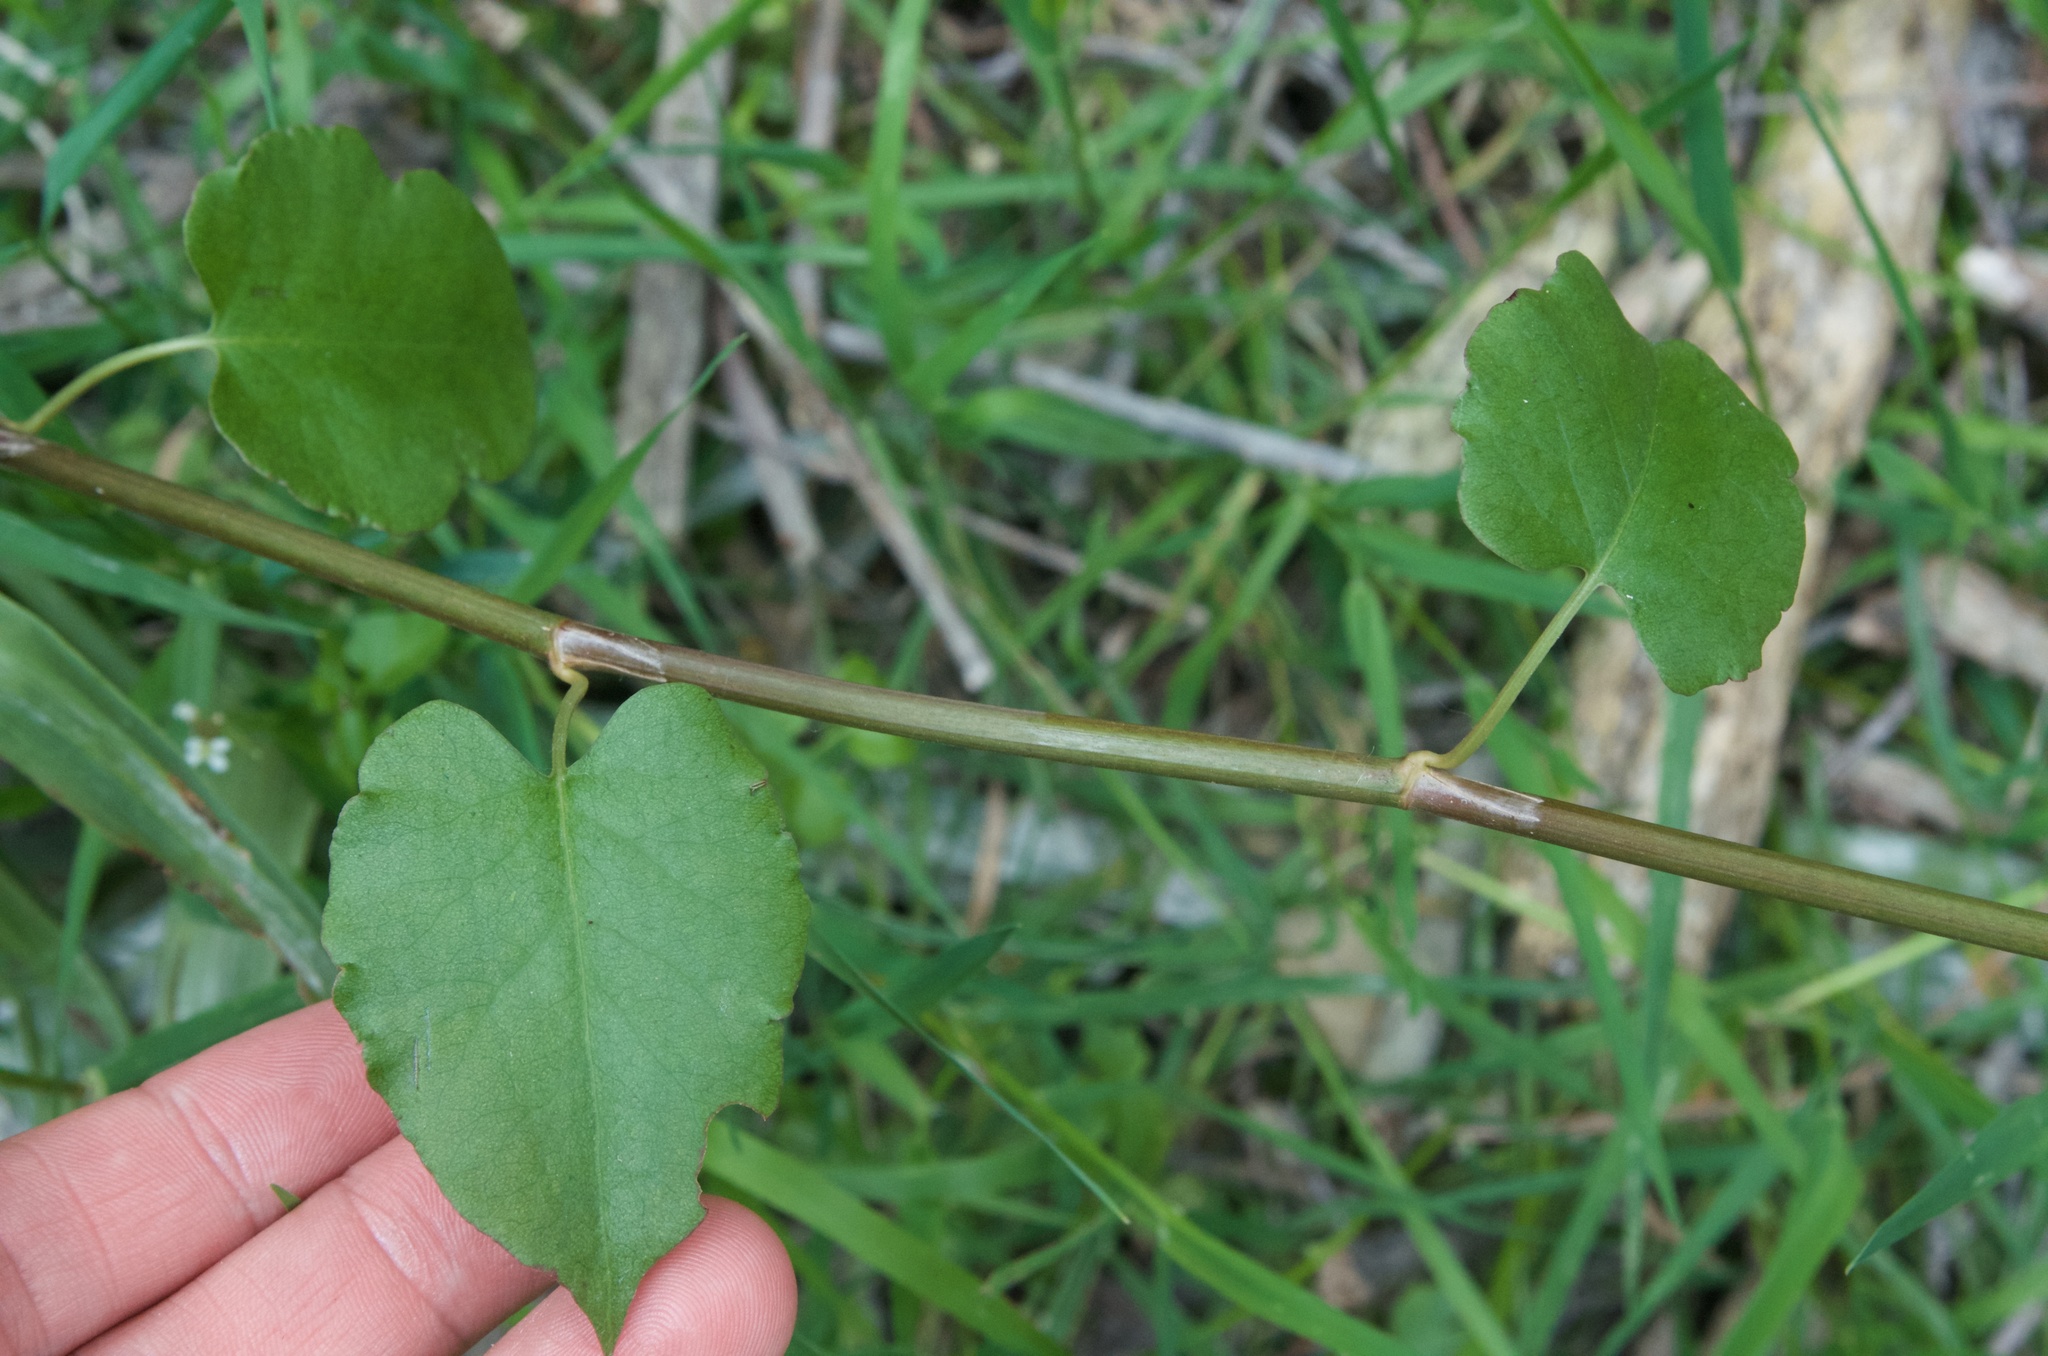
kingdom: Plantae
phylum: Tracheophyta
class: Magnoliopsida
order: Caryophyllales
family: Polygonaceae
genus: Muehlenbeckia
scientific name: Muehlenbeckia australis
